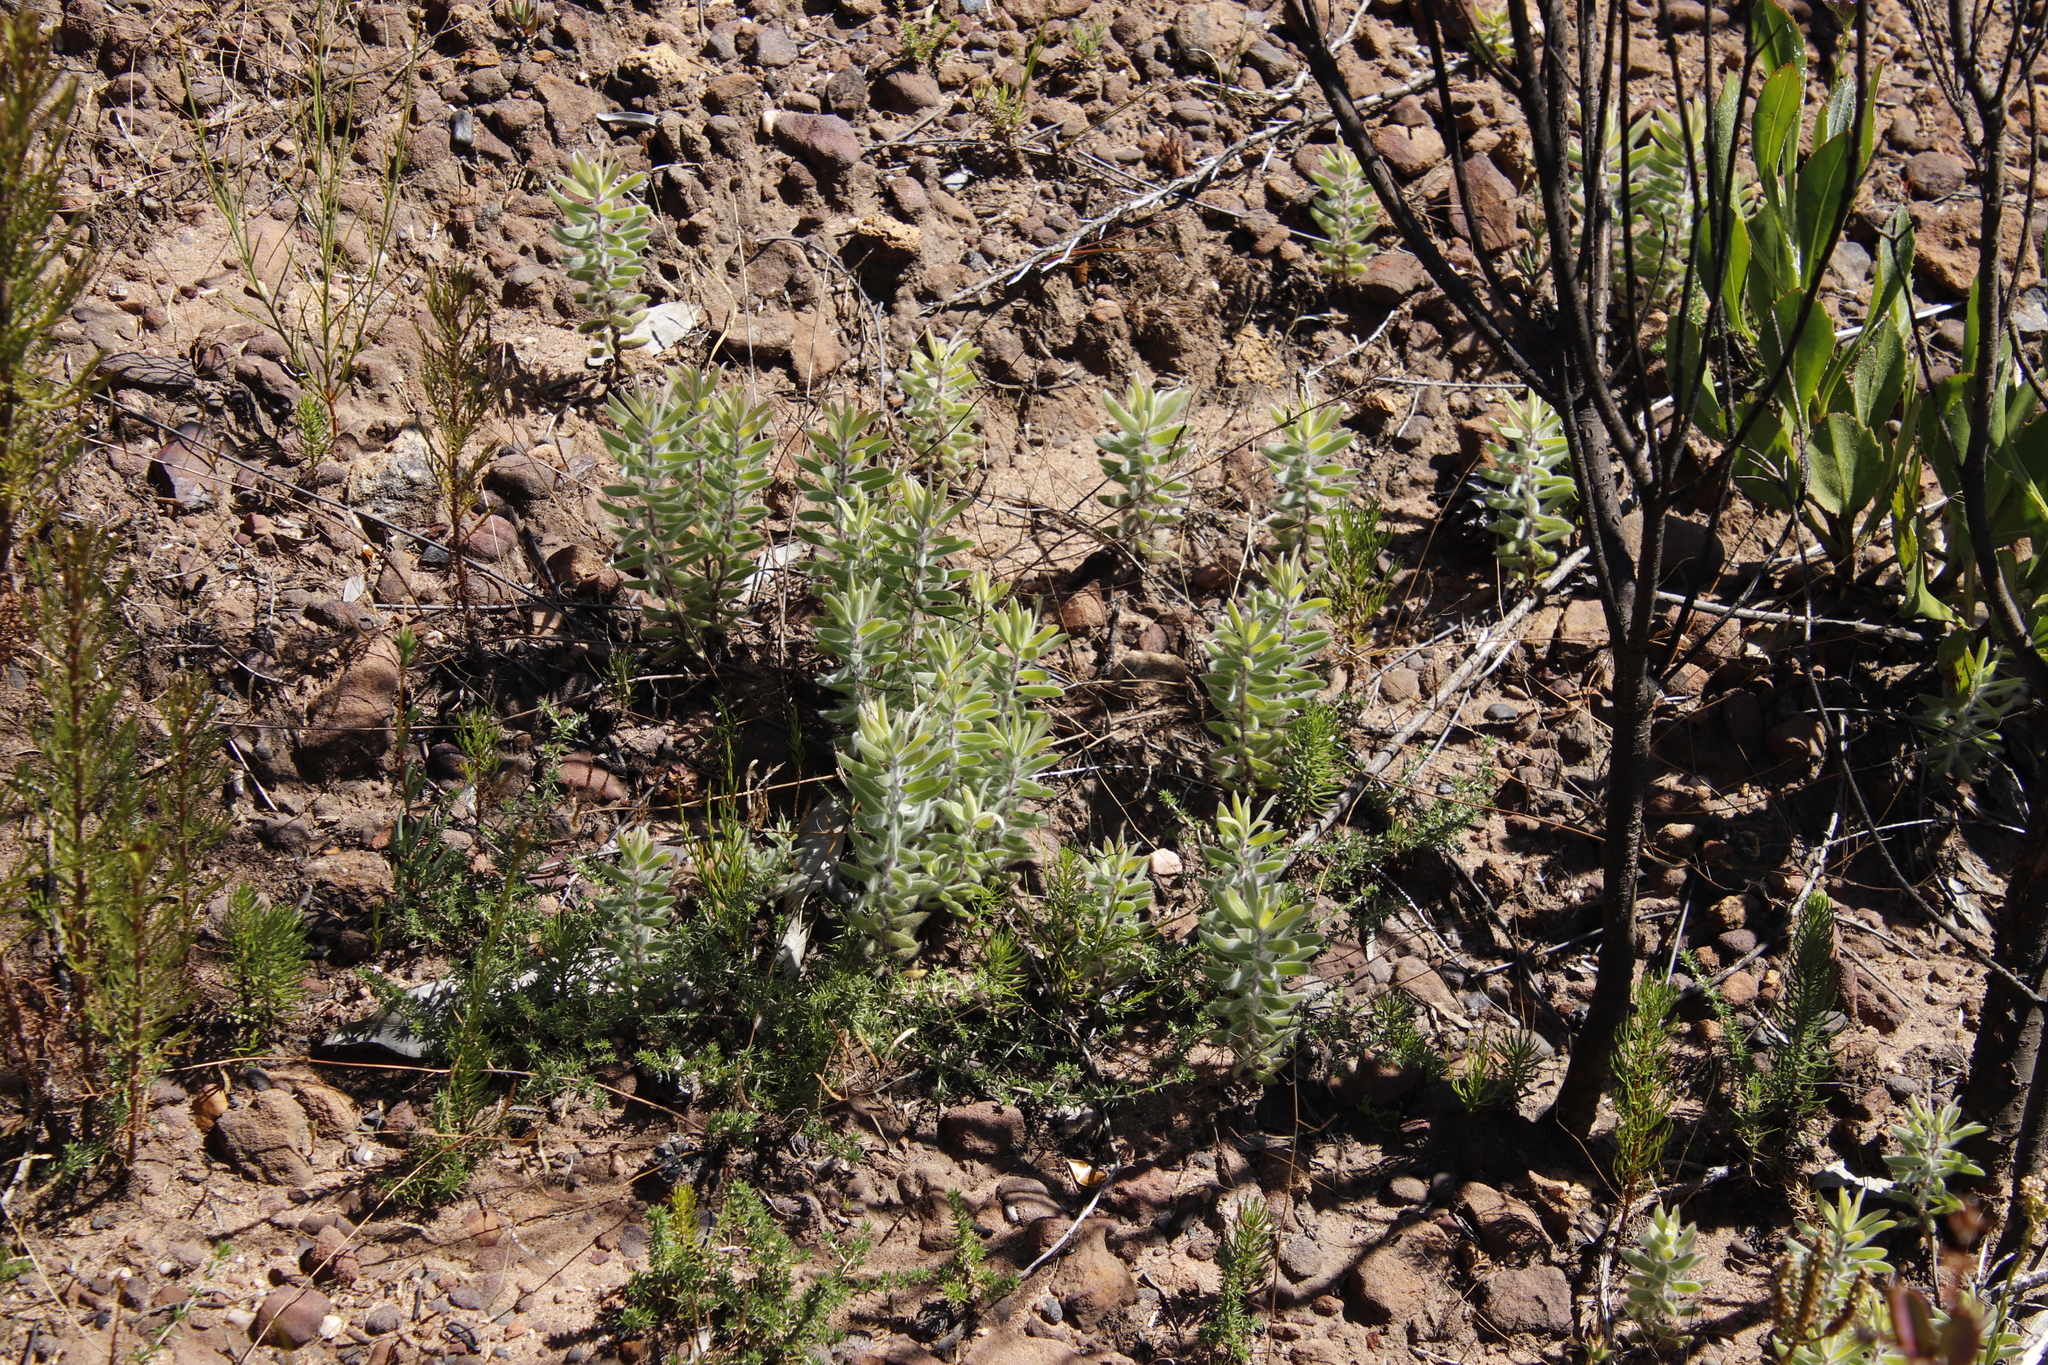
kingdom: Plantae
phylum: Tracheophyta
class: Magnoliopsida
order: Proteales
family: Proteaceae
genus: Leucadendron
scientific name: Leucadendron rubrum
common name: Spinning top
